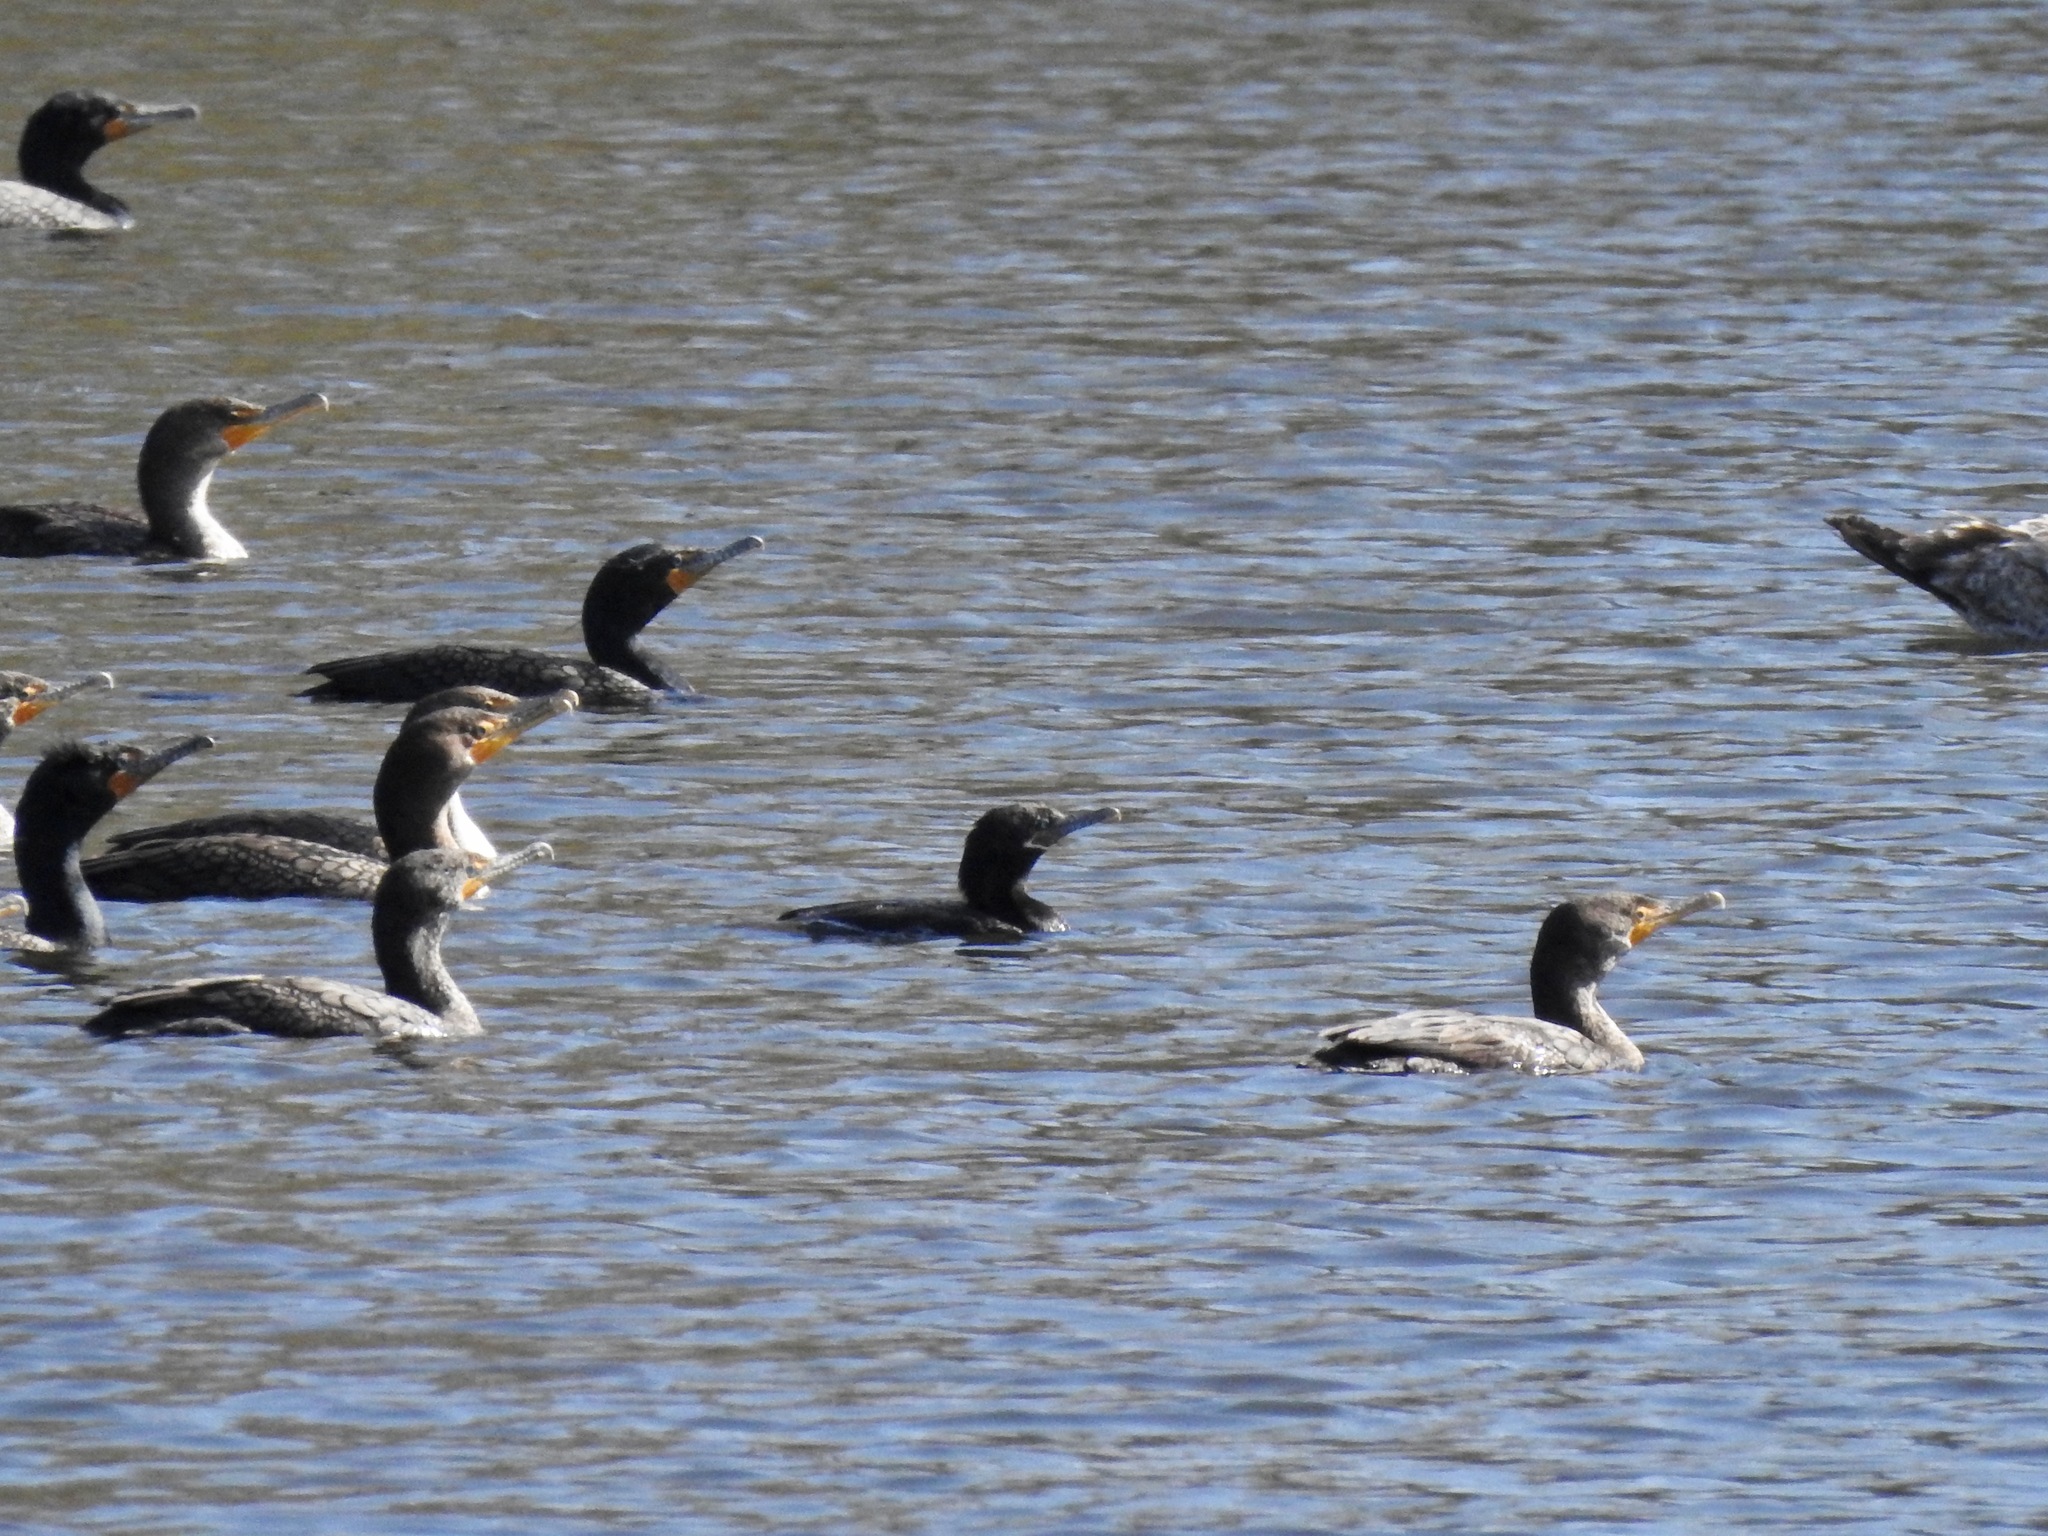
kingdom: Animalia
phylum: Chordata
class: Aves
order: Suliformes
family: Phalacrocoracidae
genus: Phalacrocorax
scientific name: Phalacrocorax brasilianus
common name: Neotropic cormorant
